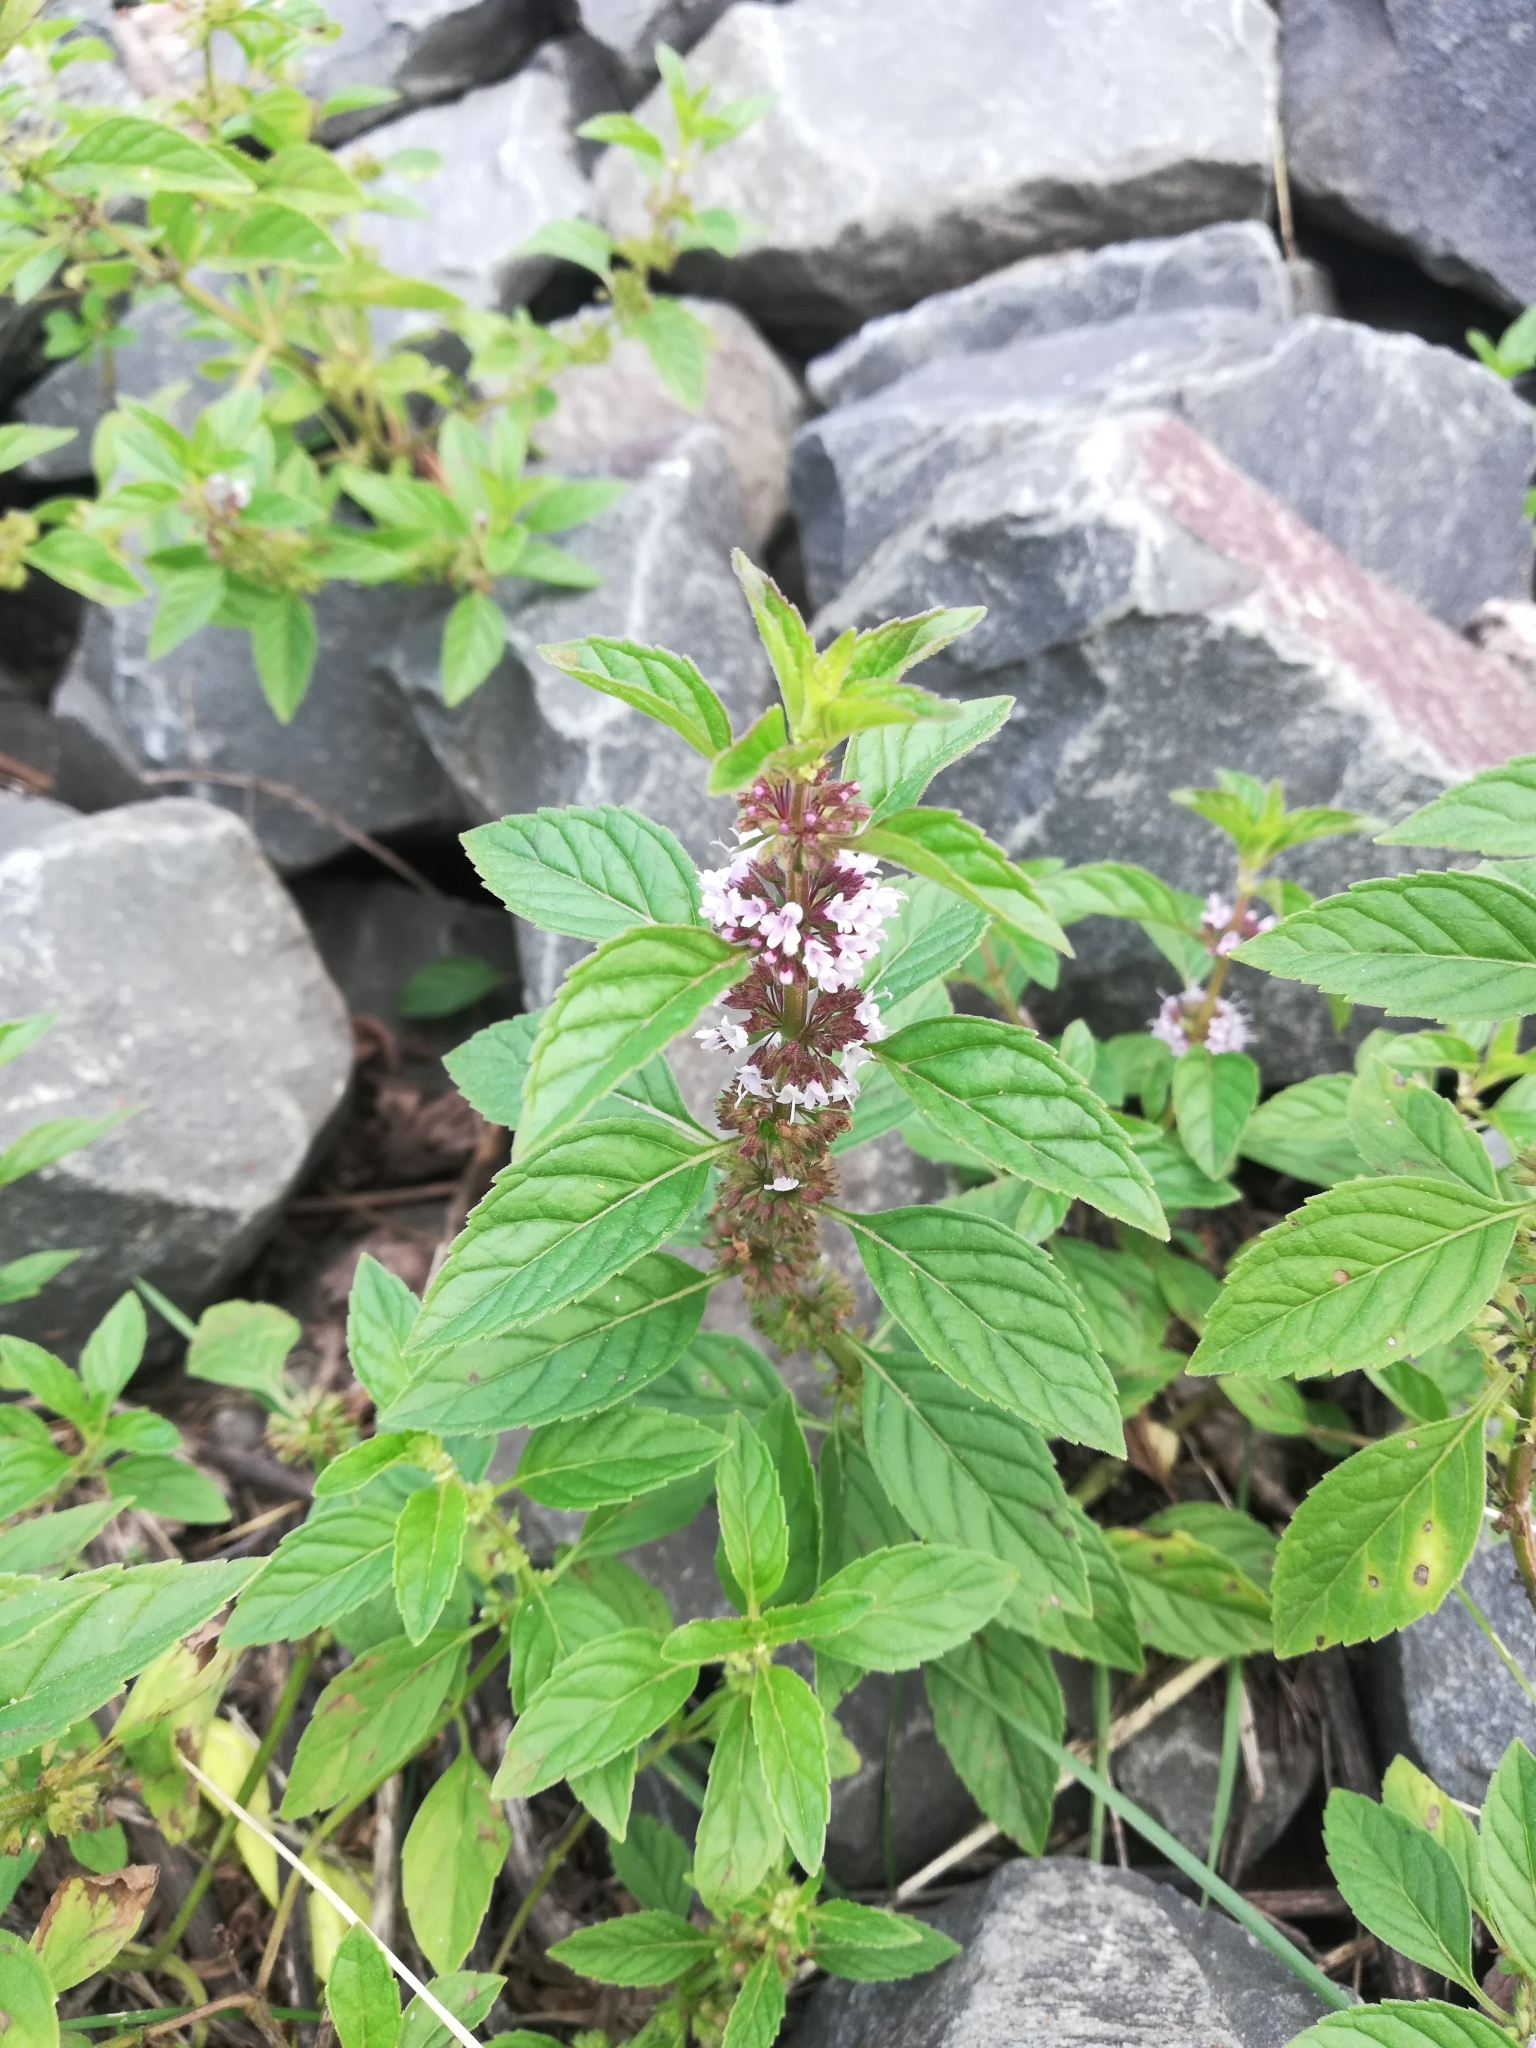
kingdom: Plantae
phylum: Tracheophyta
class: Magnoliopsida
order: Lamiales
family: Lamiaceae
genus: Mentha
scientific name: Mentha arvensis
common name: Corn mint
